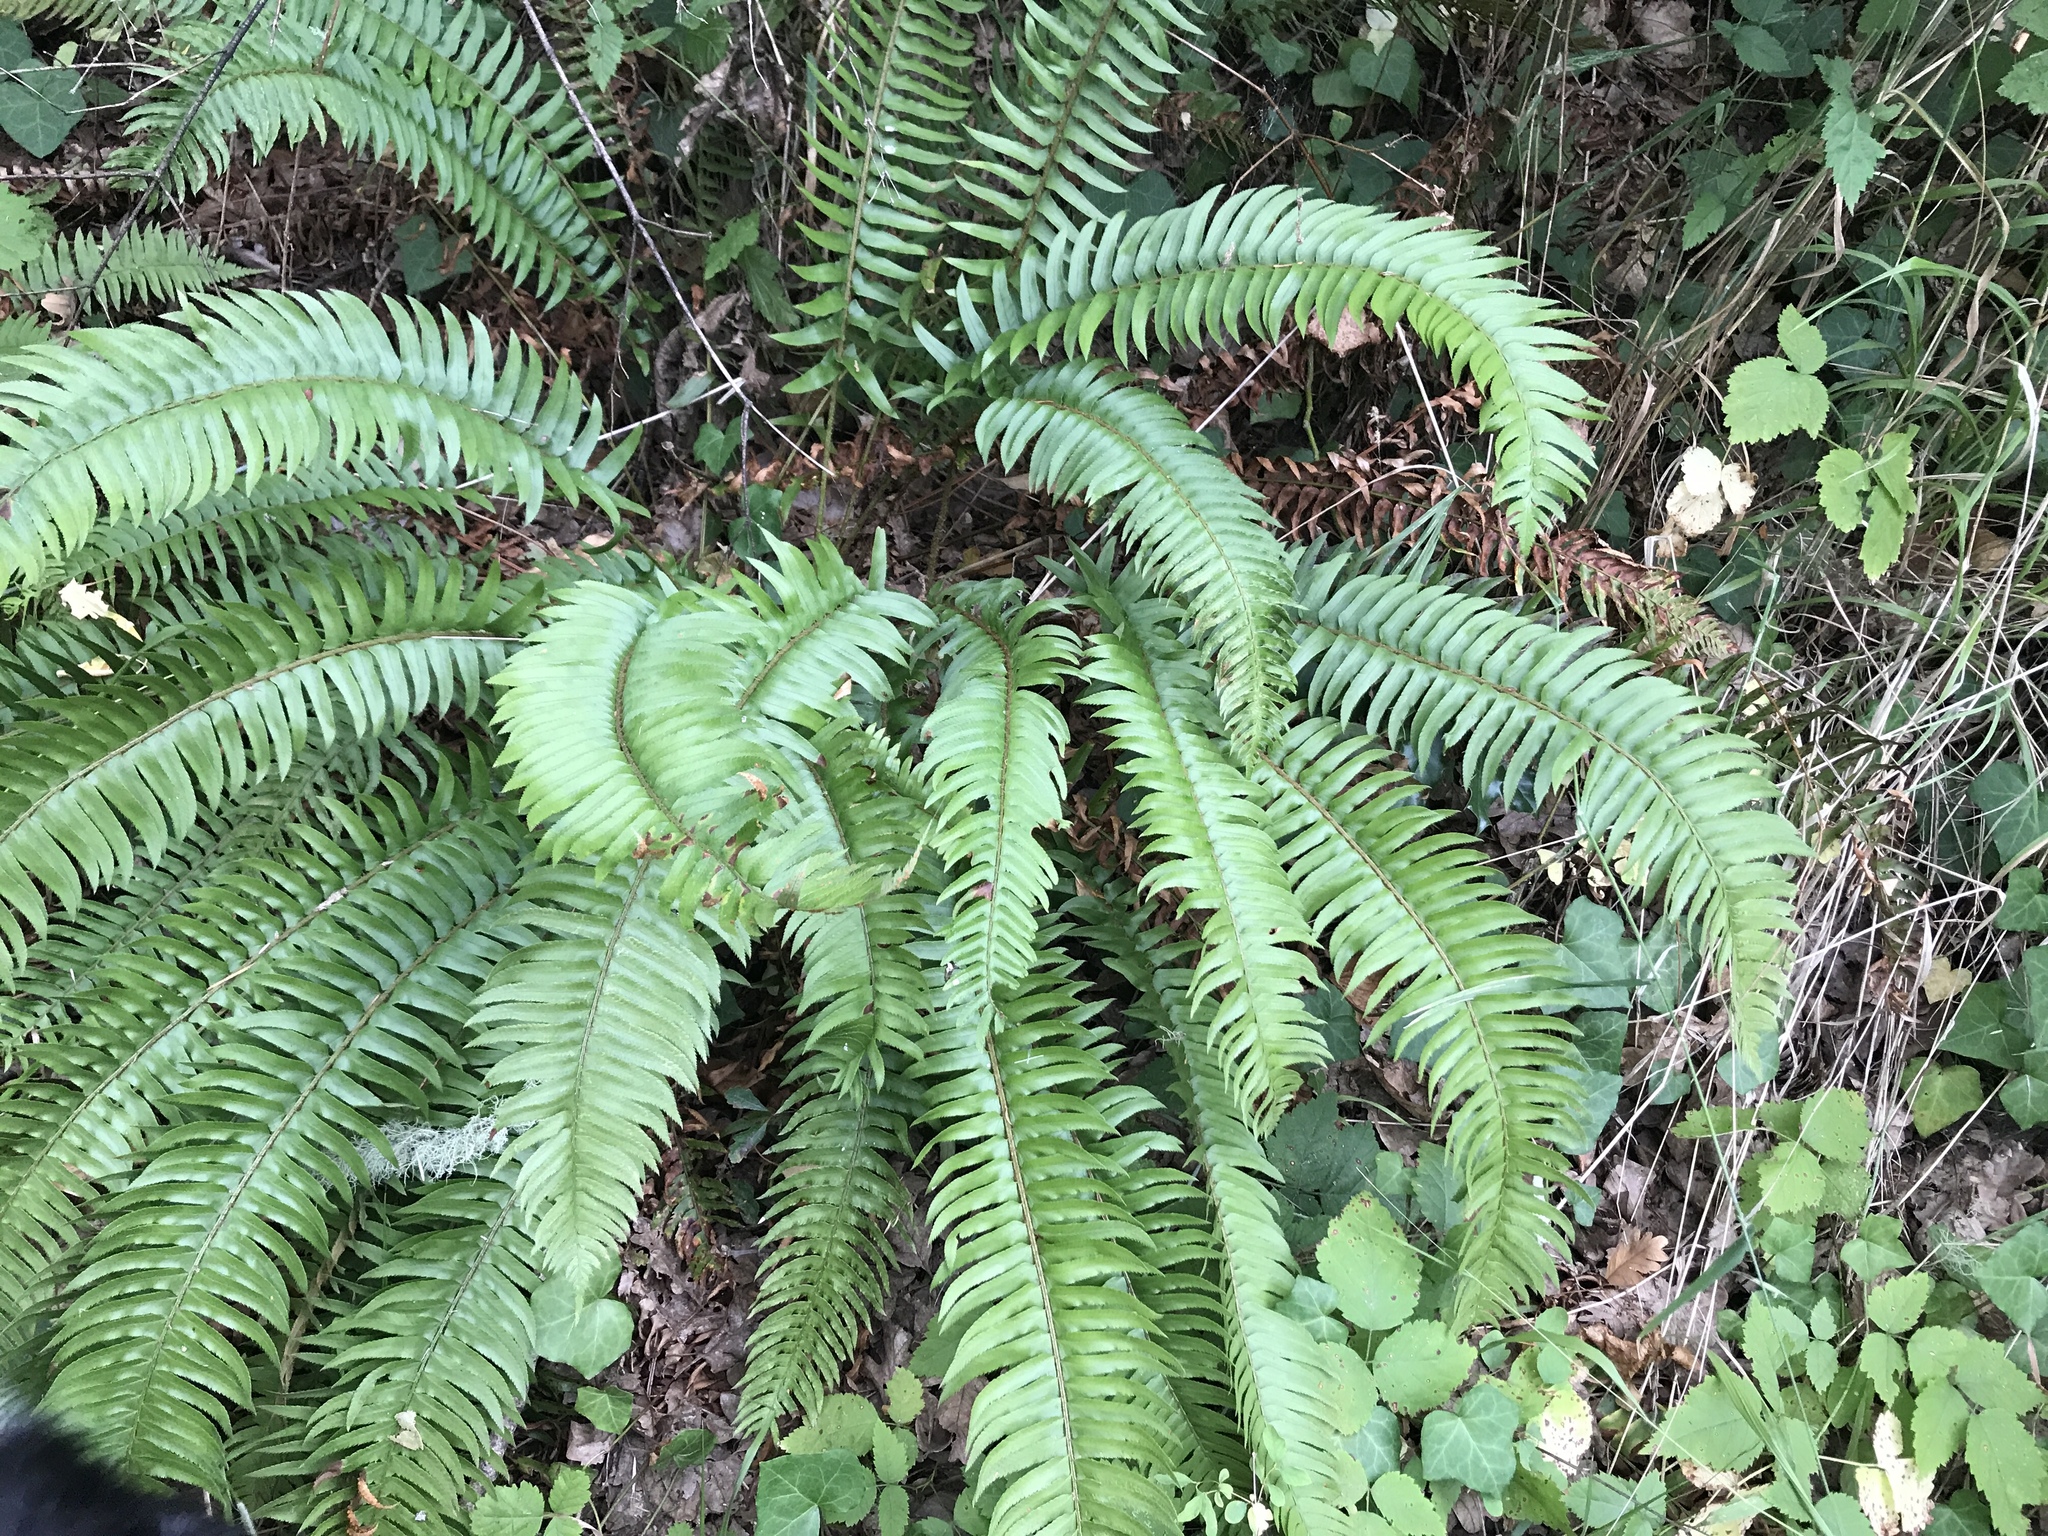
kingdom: Plantae
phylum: Tracheophyta
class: Polypodiopsida
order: Polypodiales
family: Dryopteridaceae
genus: Polystichum
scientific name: Polystichum munitum
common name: Western sword-fern
